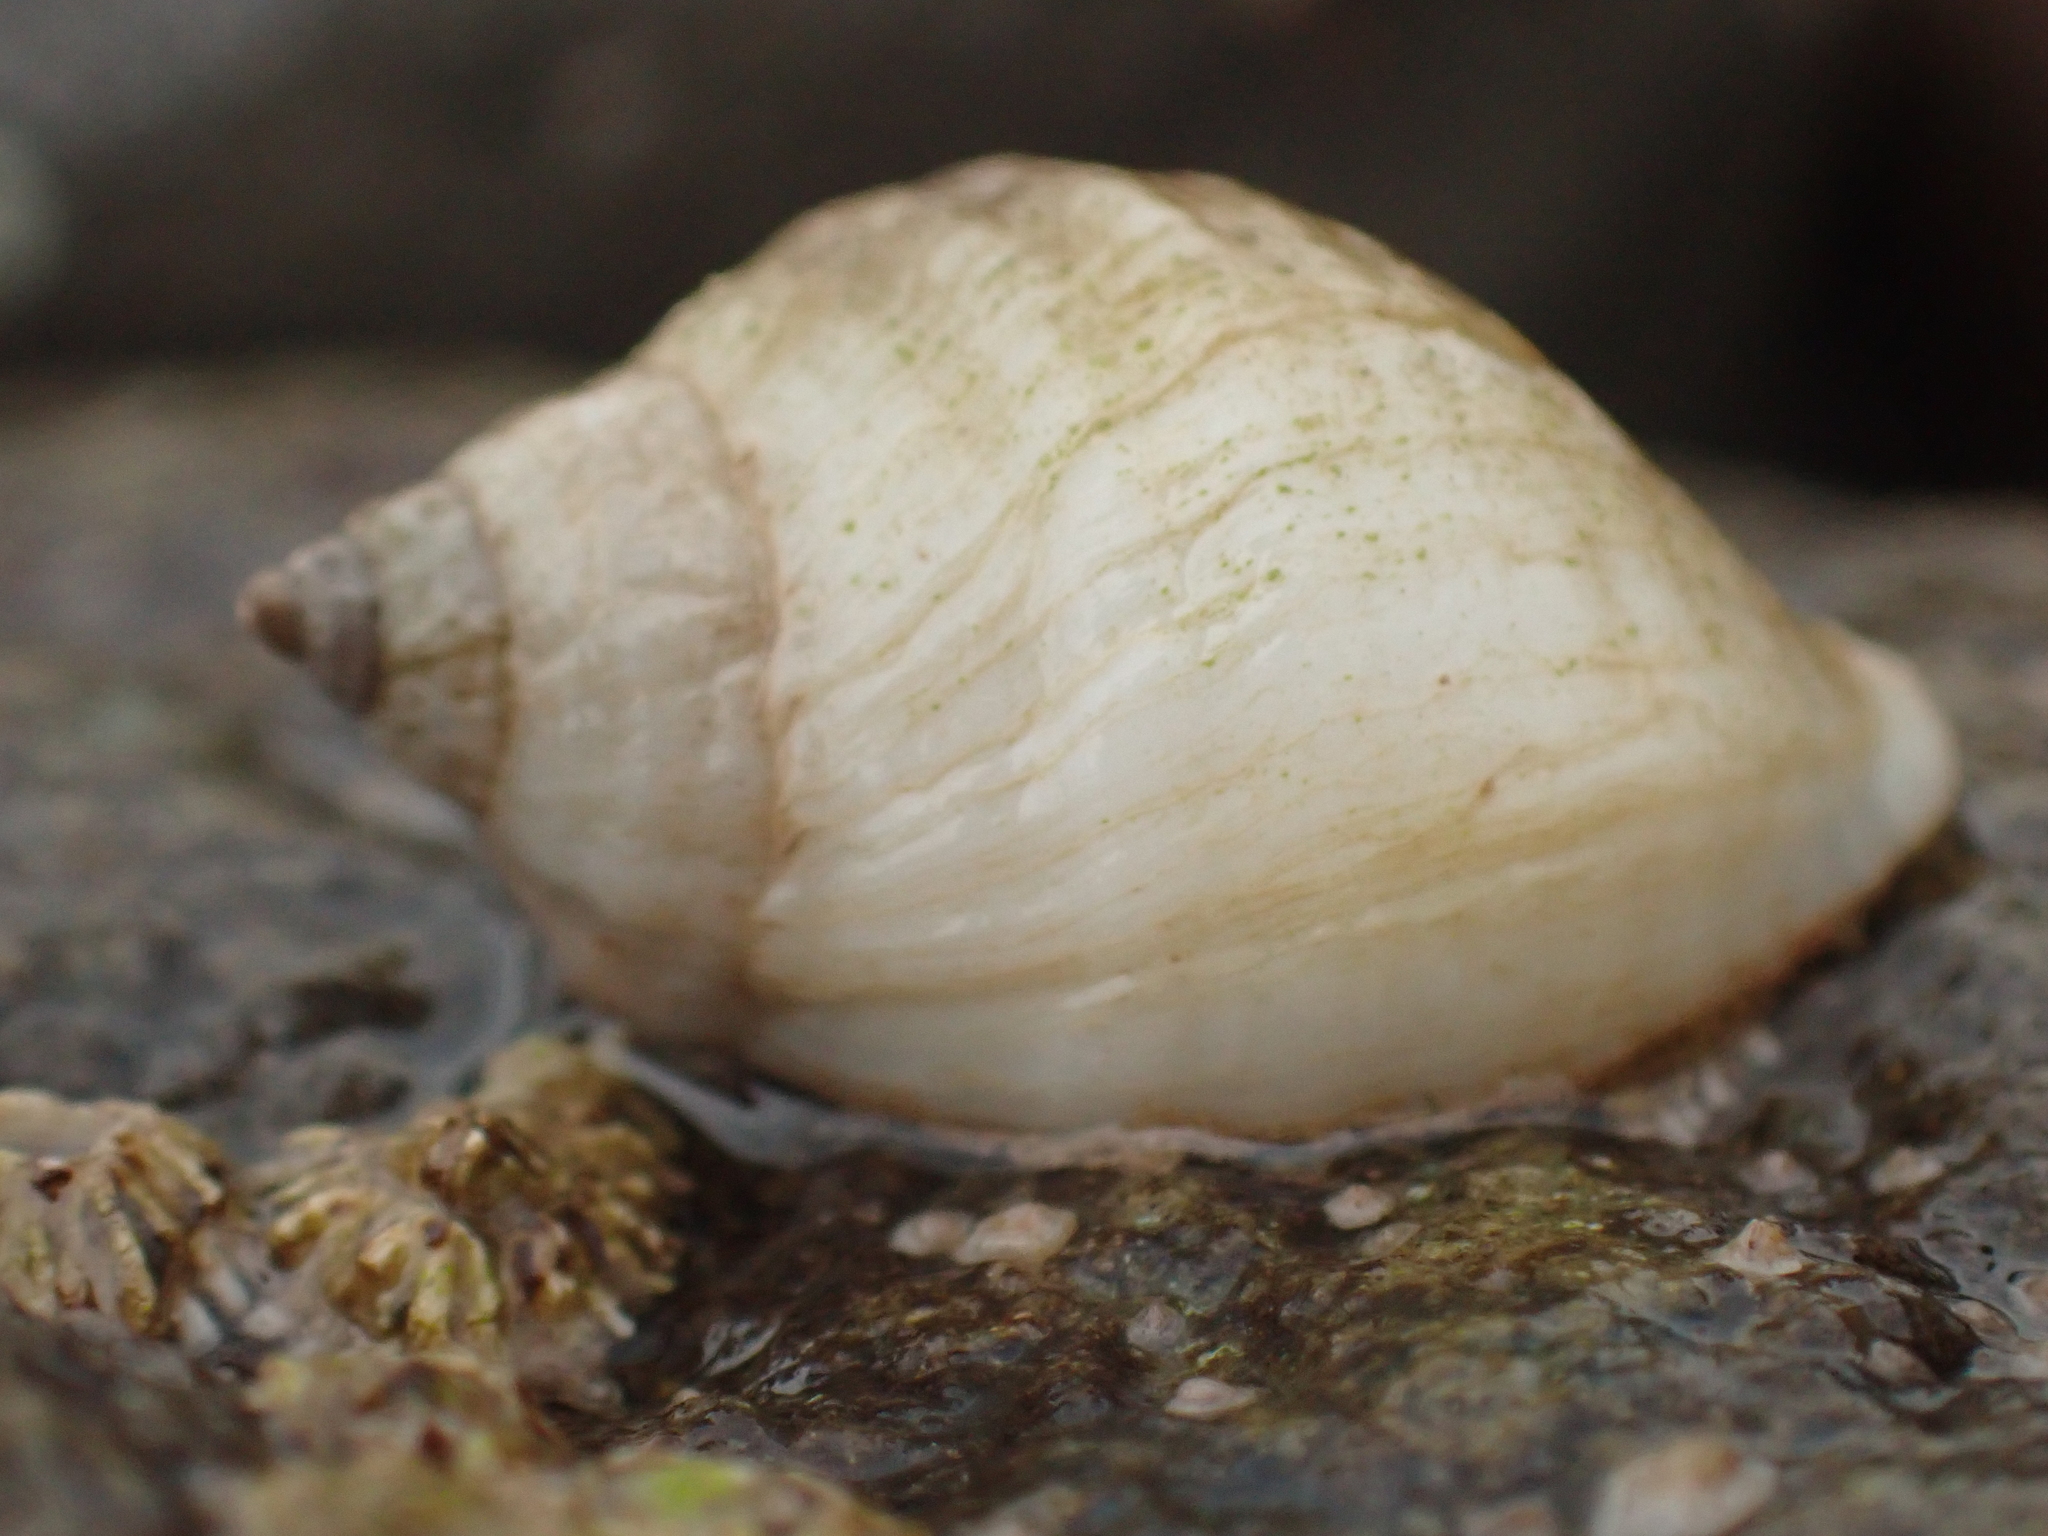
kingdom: Animalia
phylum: Mollusca
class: Gastropoda
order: Neogastropoda
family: Muricidae
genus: Nucella
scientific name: Nucella lapillus
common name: Dog whelk
